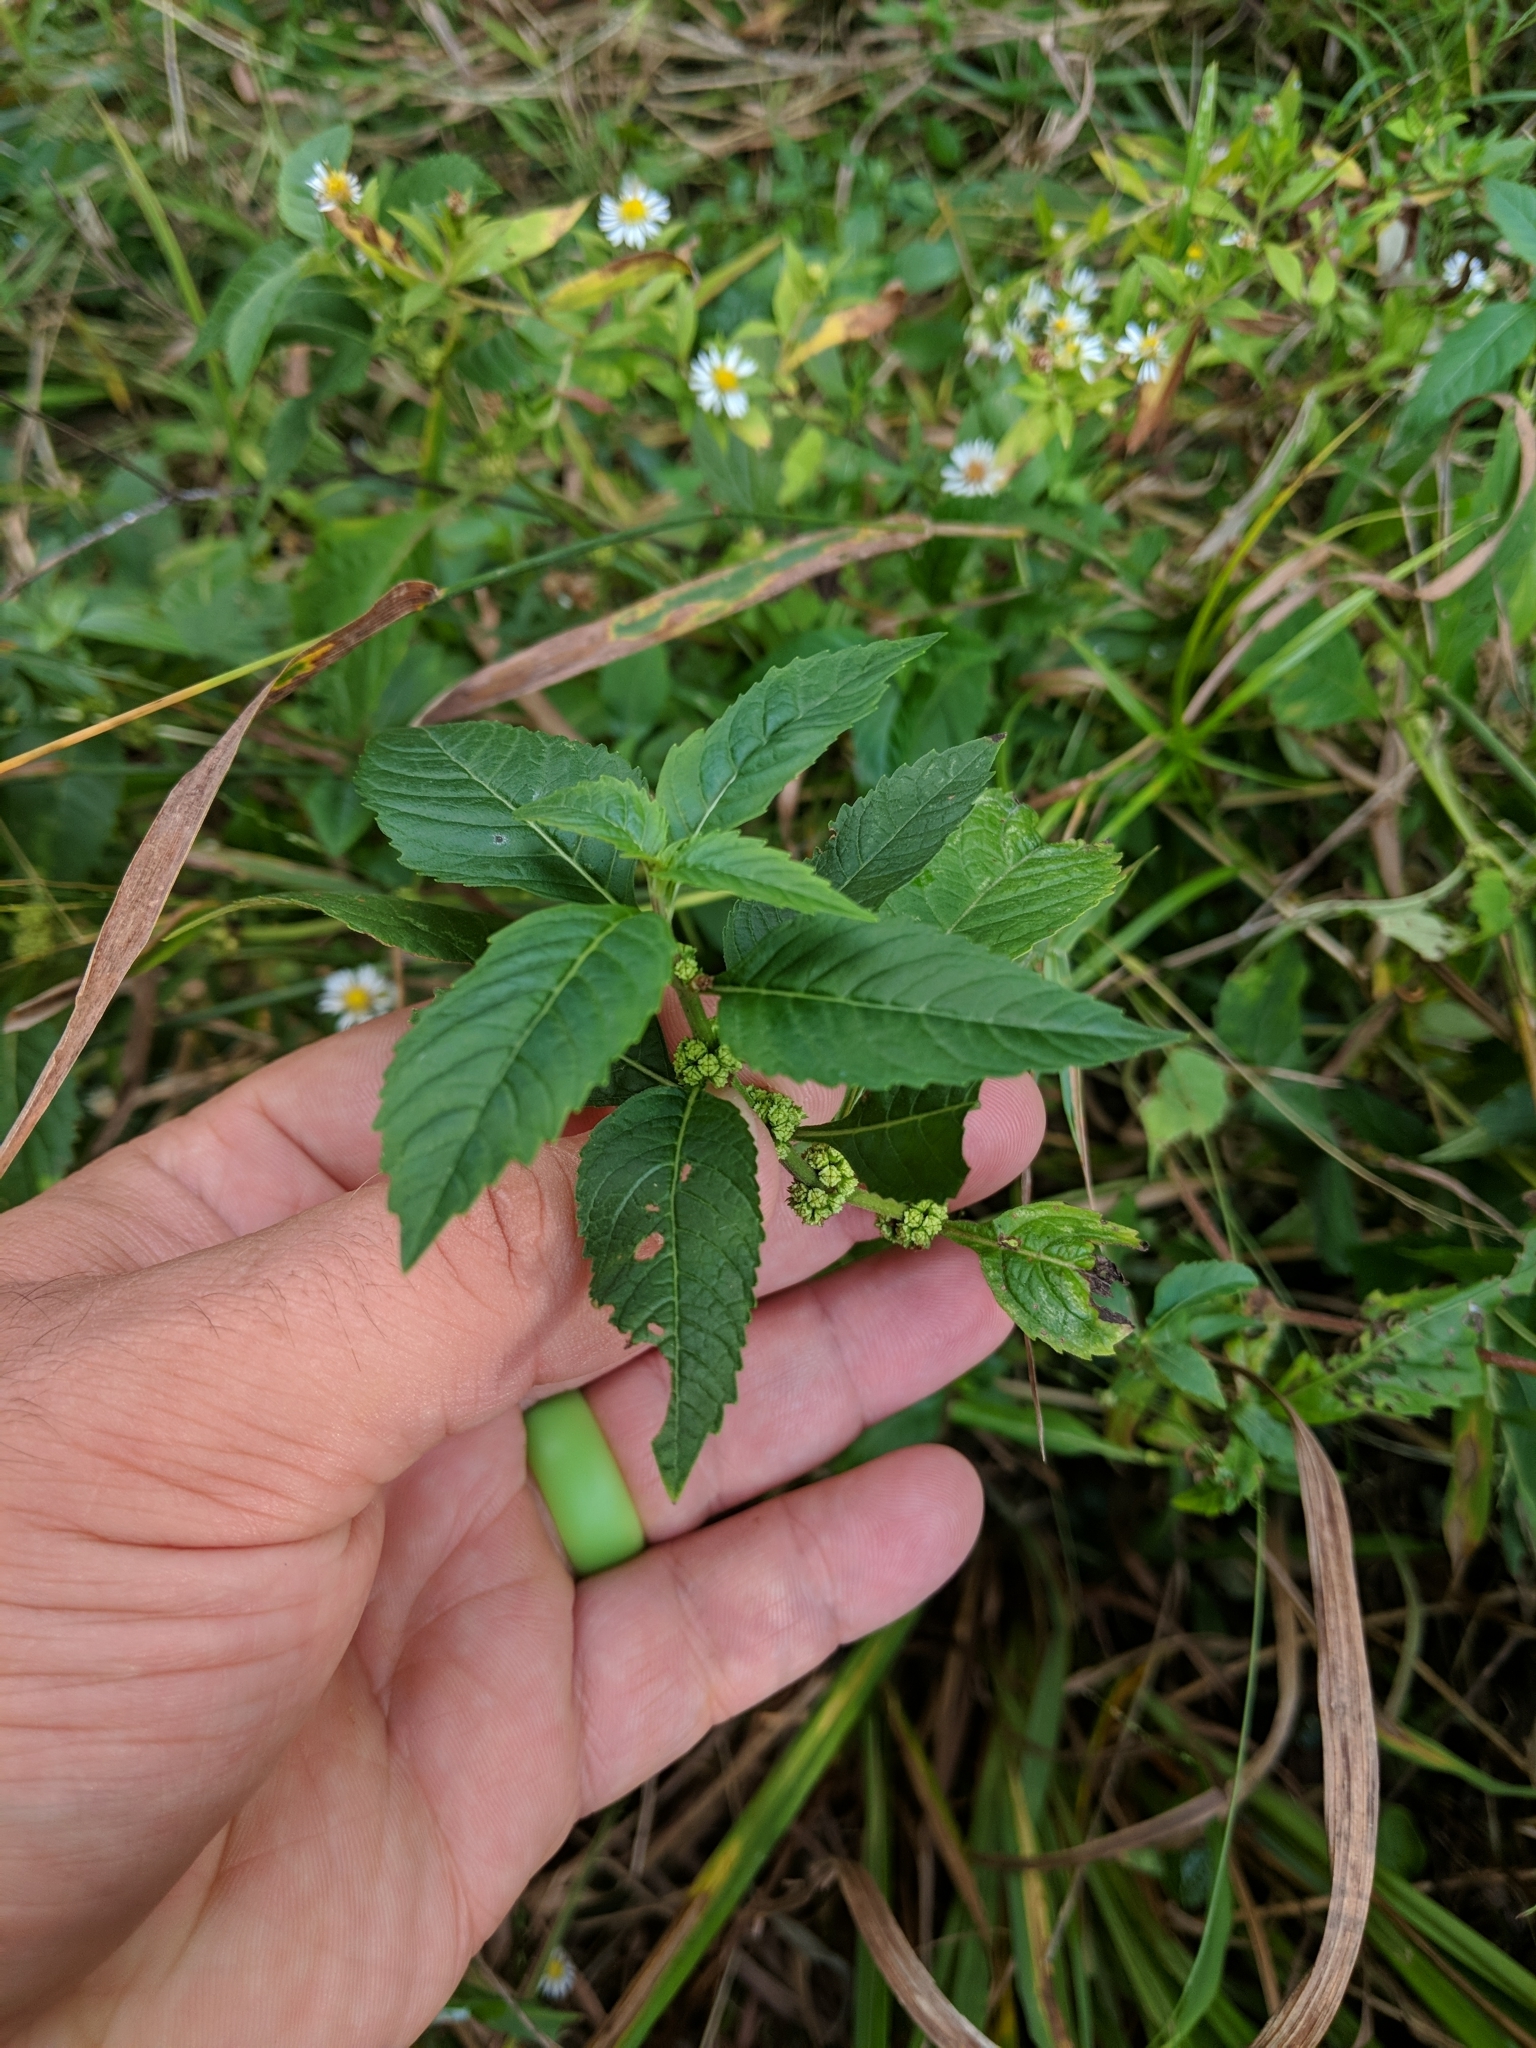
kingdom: Plantae
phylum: Tracheophyta
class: Magnoliopsida
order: Lamiales
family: Lamiaceae
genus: Lycopus
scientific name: Lycopus uniflorus
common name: Northern bugleweed
